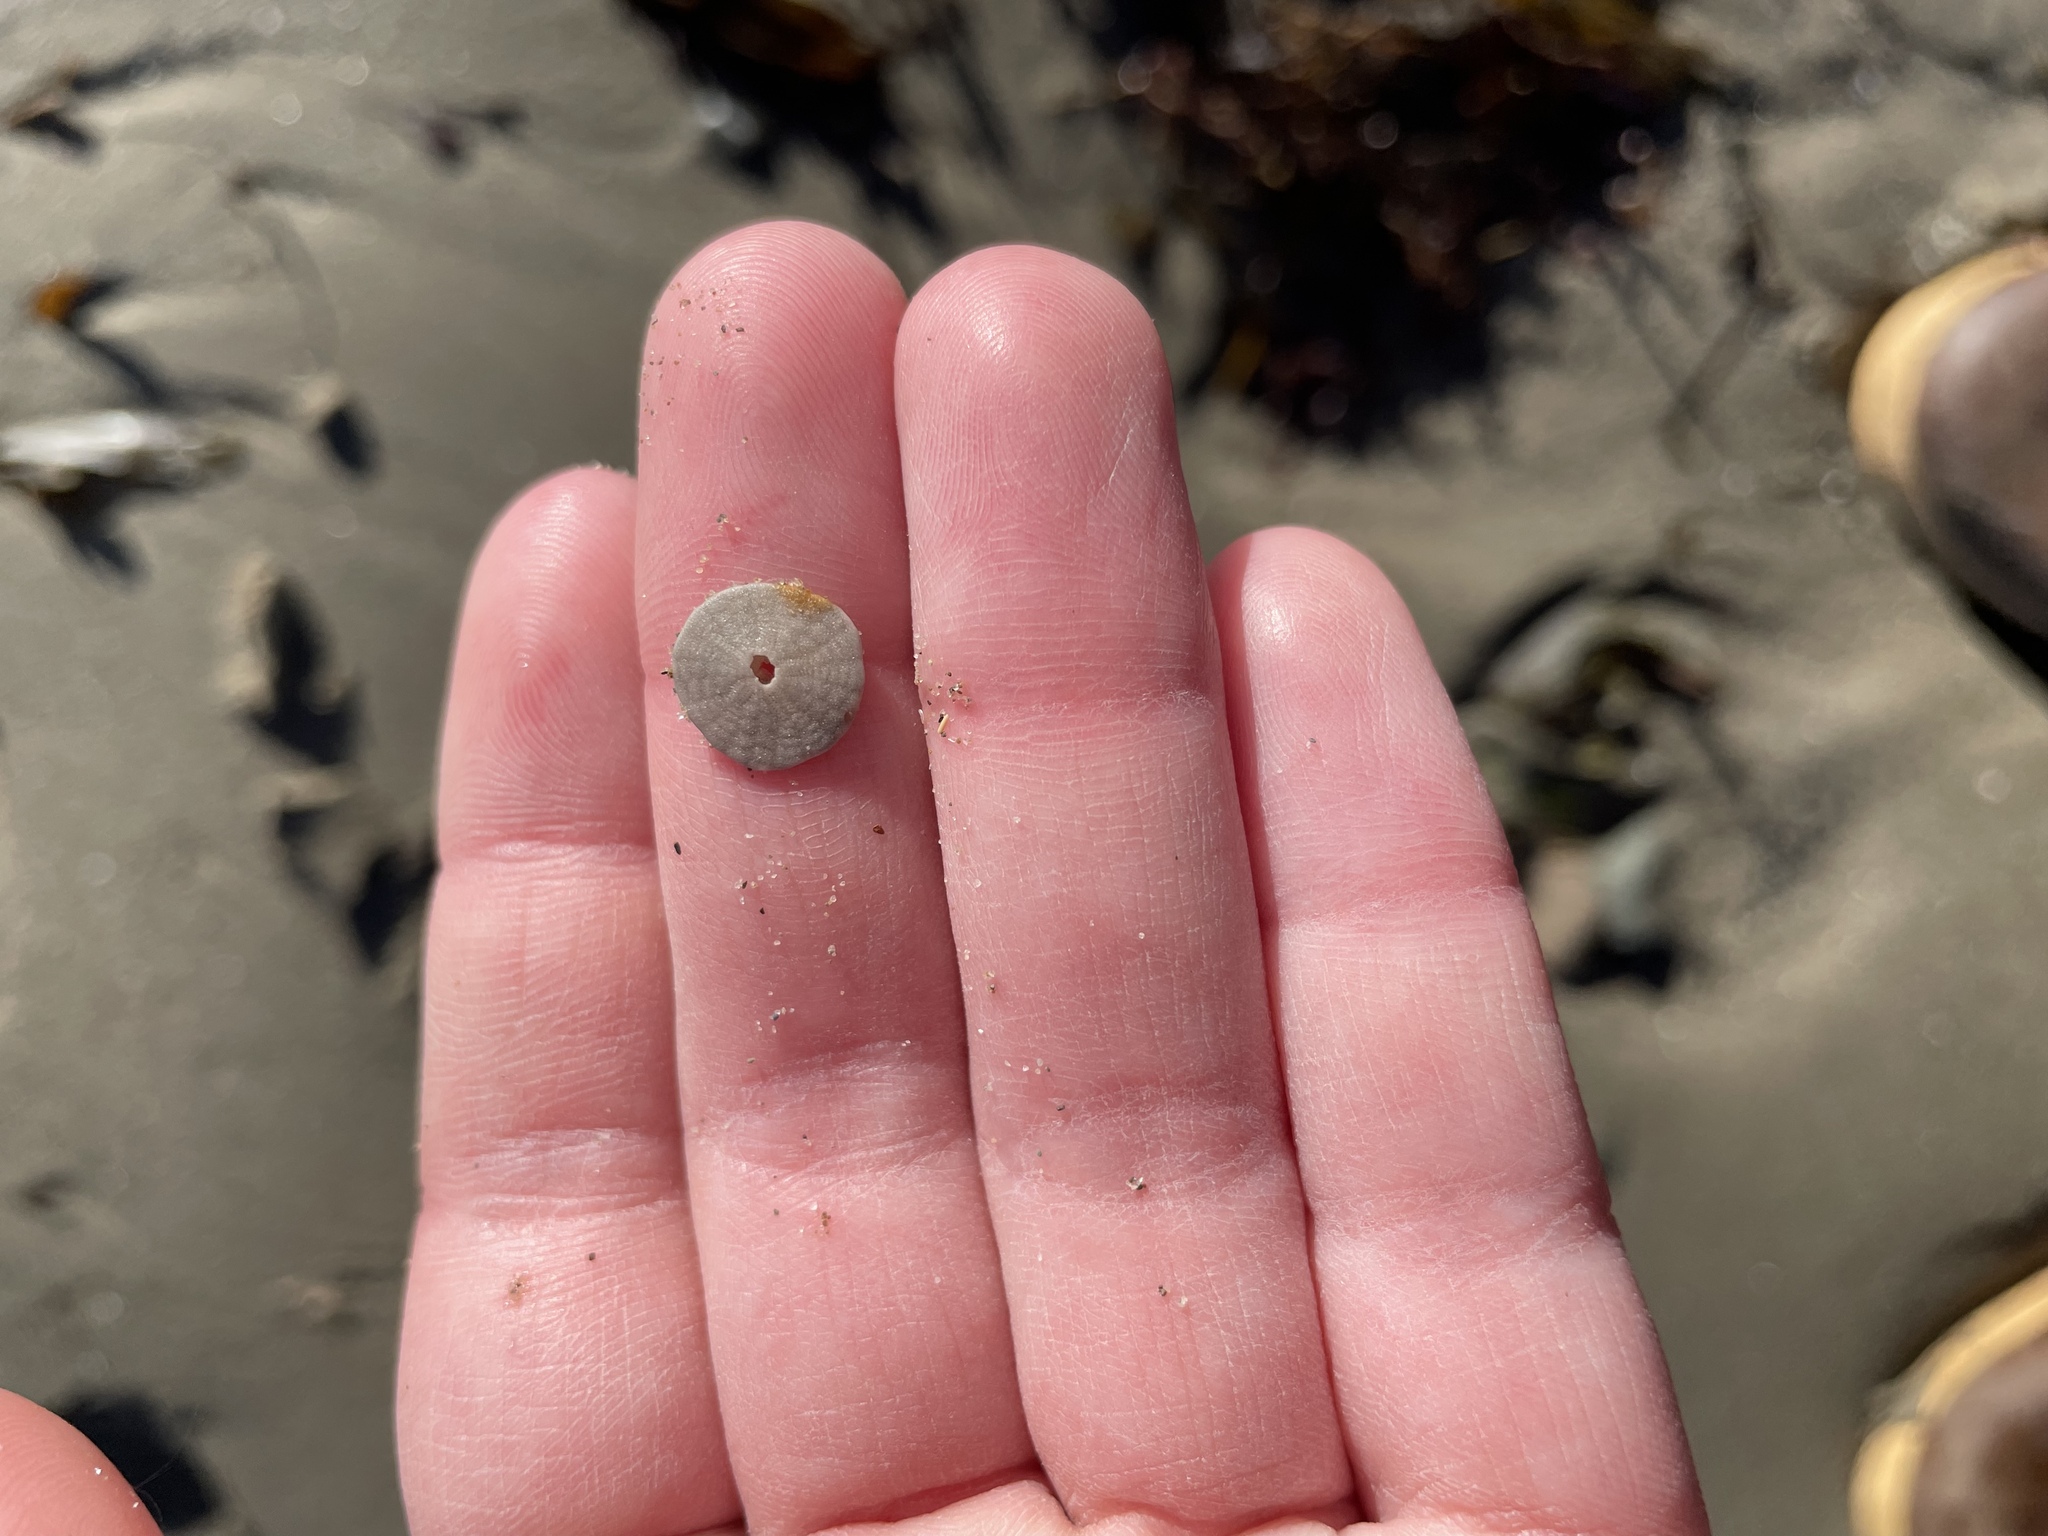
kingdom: Animalia
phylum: Echinodermata
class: Echinoidea
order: Echinolampadacea
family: Echinarachniidae
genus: Echinarachnius
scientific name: Echinarachnius parma
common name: Common sand dollar
